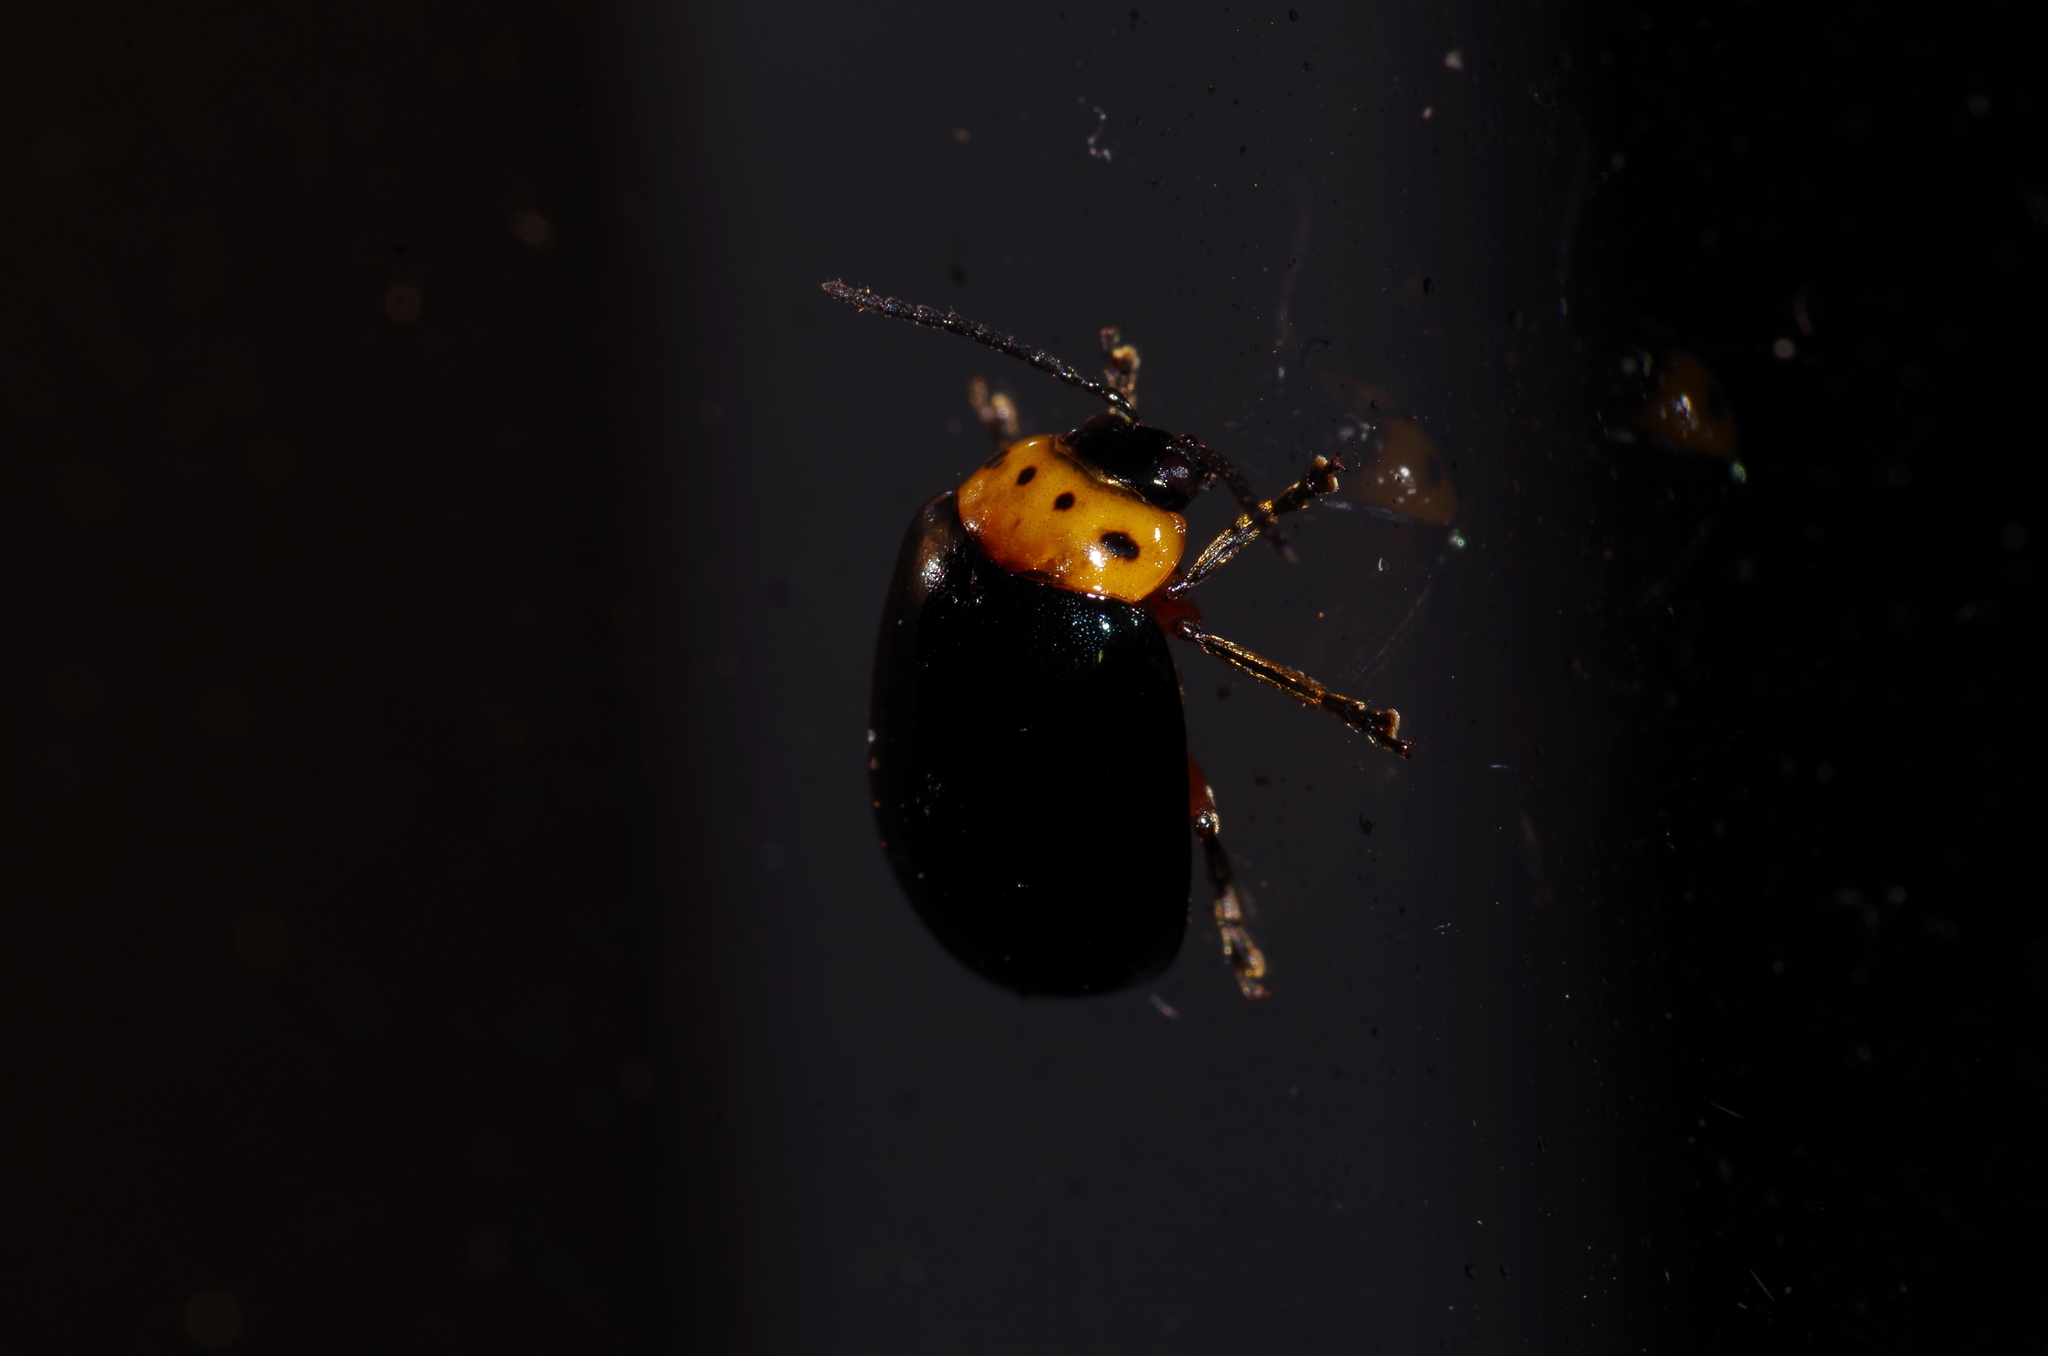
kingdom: Animalia
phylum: Arthropoda
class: Insecta
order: Coleoptera
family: Chrysomelidae
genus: Morphosphaera
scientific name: Morphosphaera caerulea
